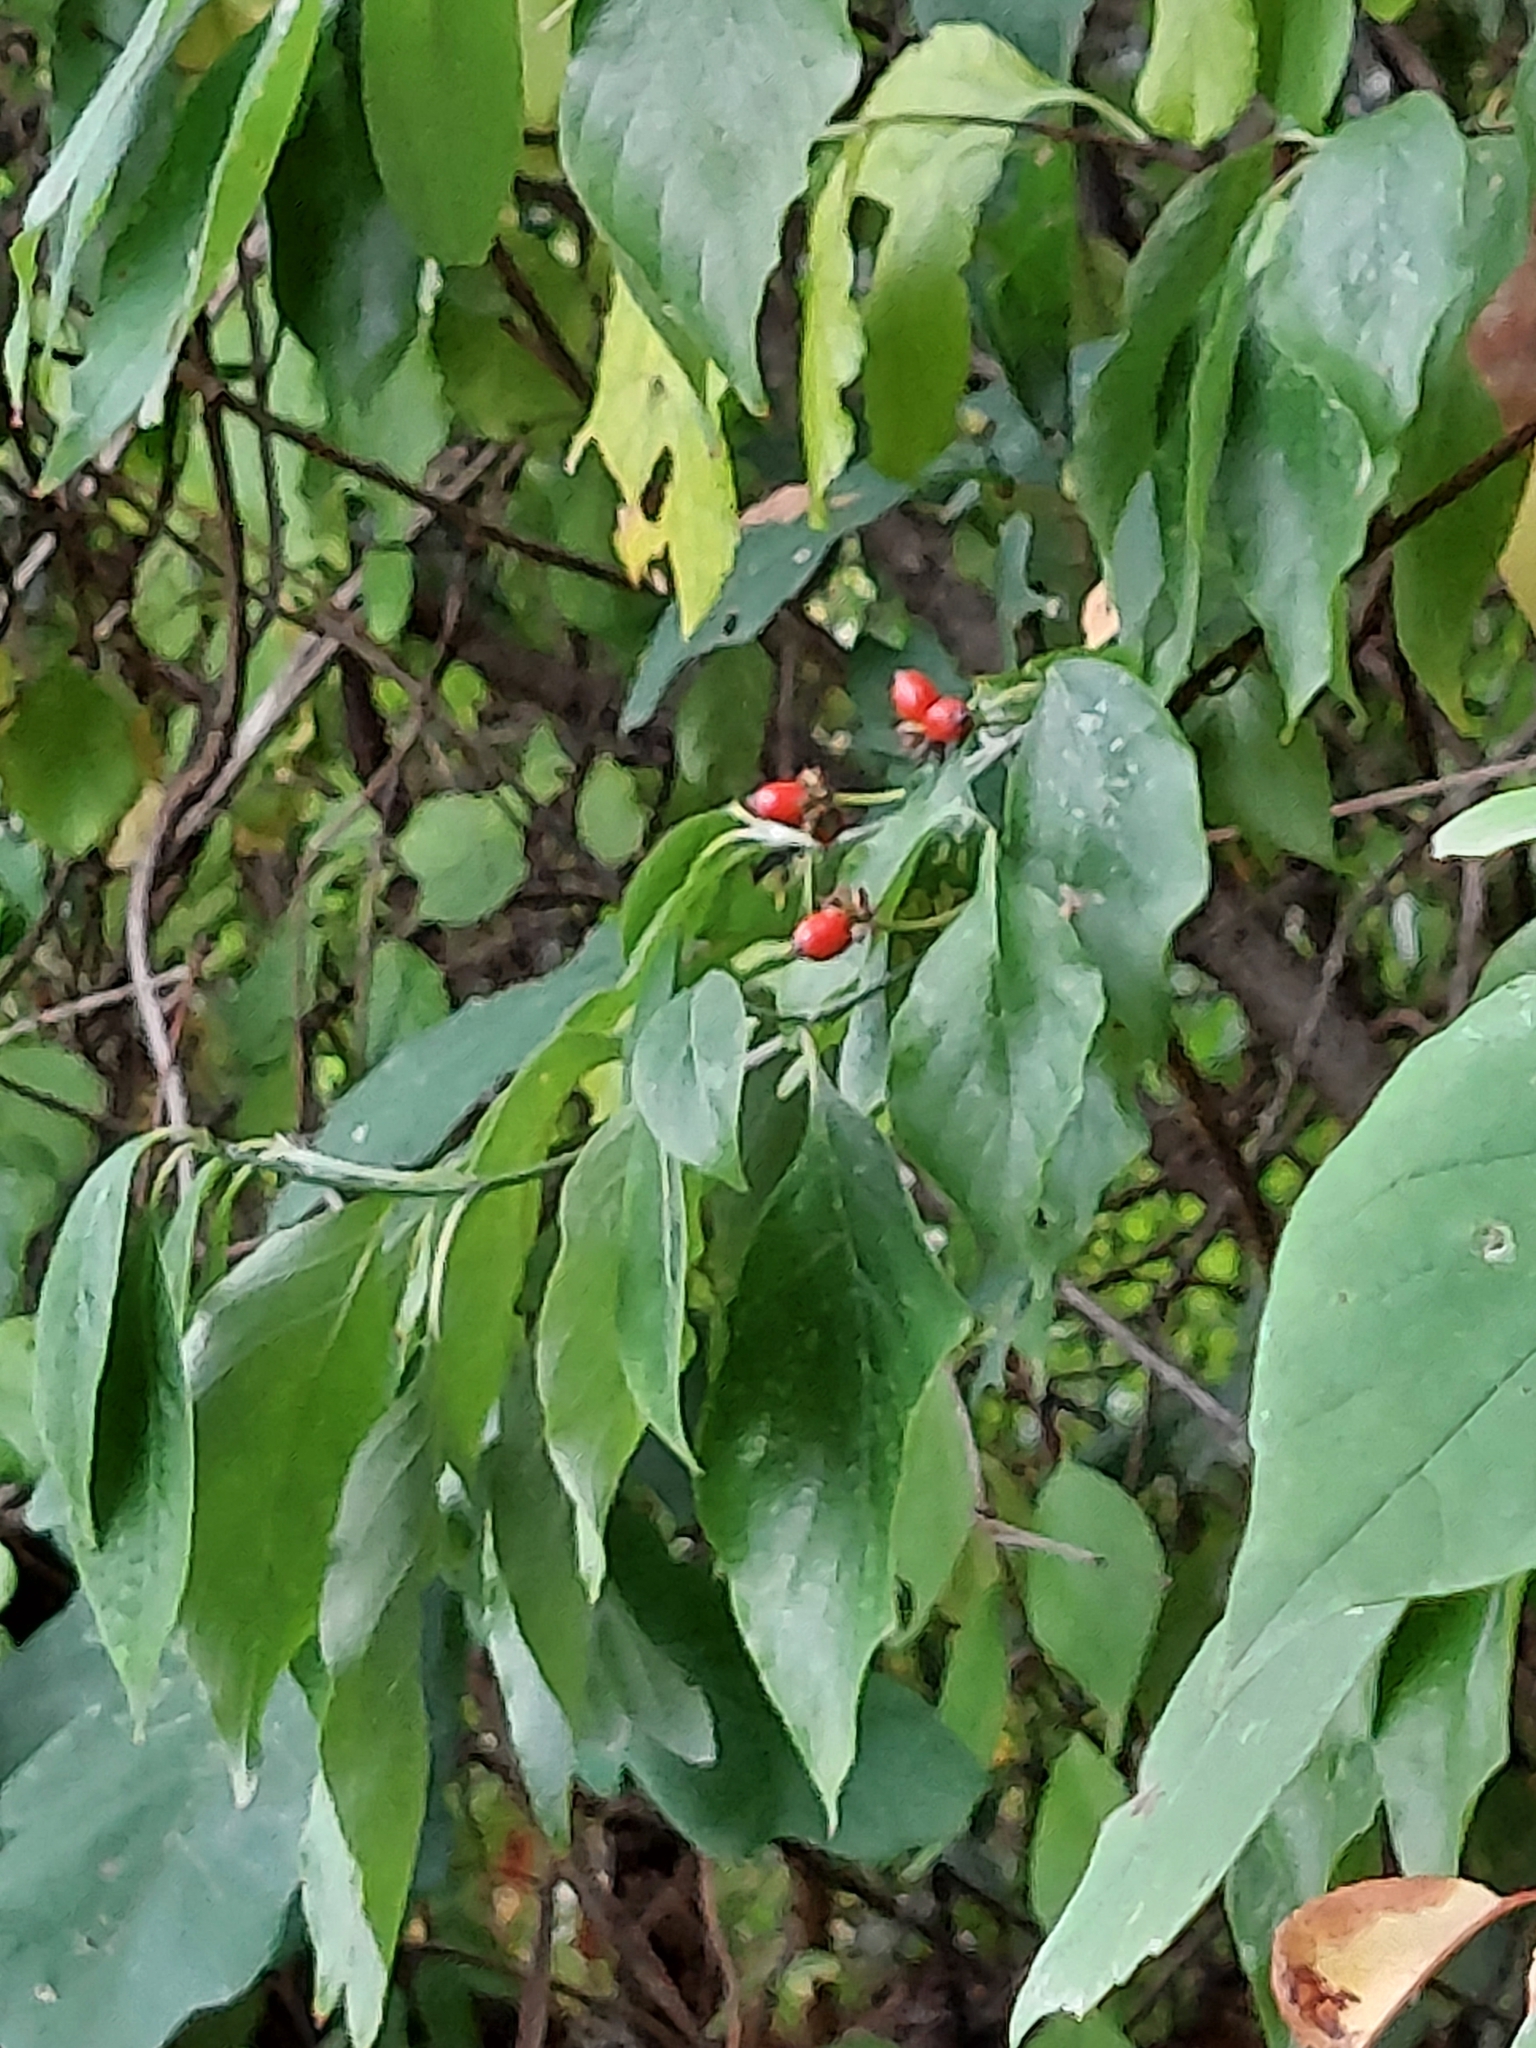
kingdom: Plantae
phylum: Tracheophyta
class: Magnoliopsida
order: Cornales
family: Cornaceae
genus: Cornus
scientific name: Cornus florida
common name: Flowering dogwood
